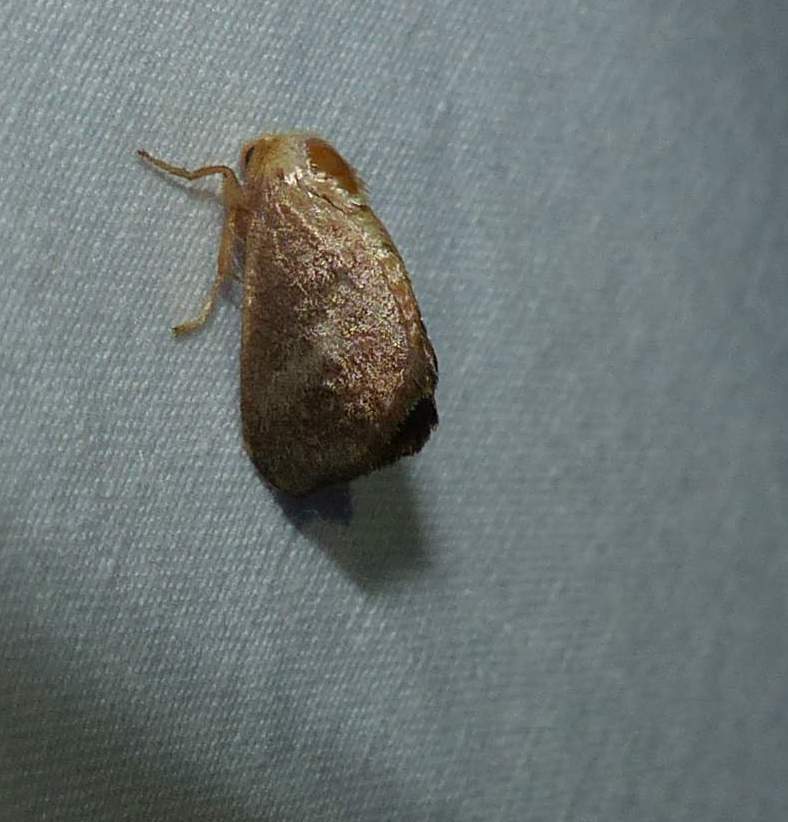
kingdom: Animalia
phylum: Arthropoda
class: Insecta
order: Lepidoptera
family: Limacodidae
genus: Isa
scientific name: Isa textula
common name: Crowned slug moth
